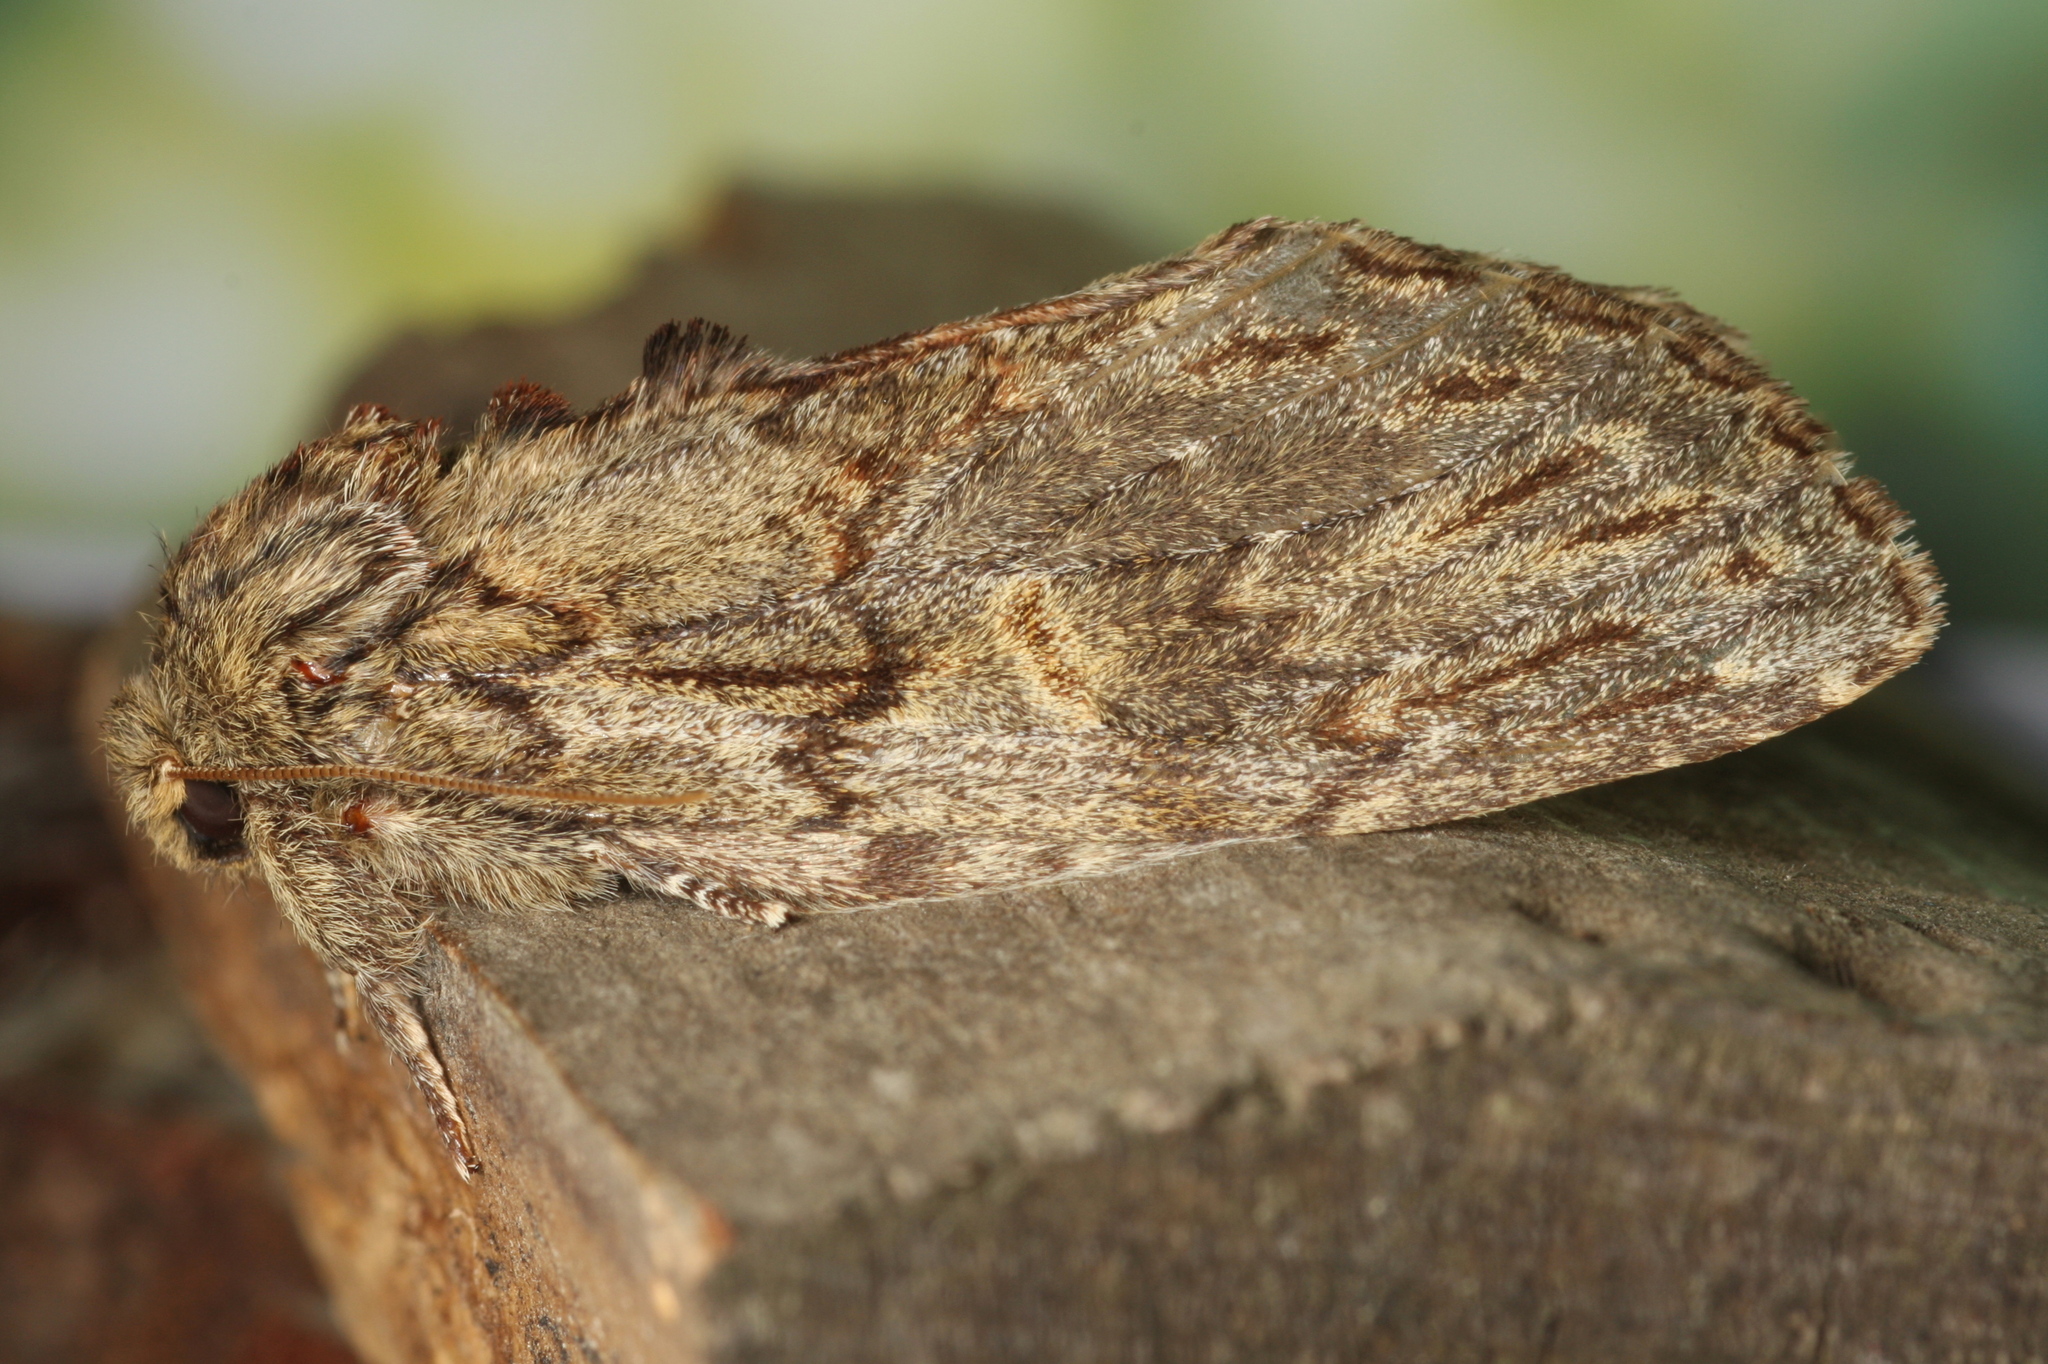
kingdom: Animalia
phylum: Arthropoda
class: Insecta
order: Lepidoptera
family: Notodontidae
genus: Peridea
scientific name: Peridea anceps
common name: Great prominent
